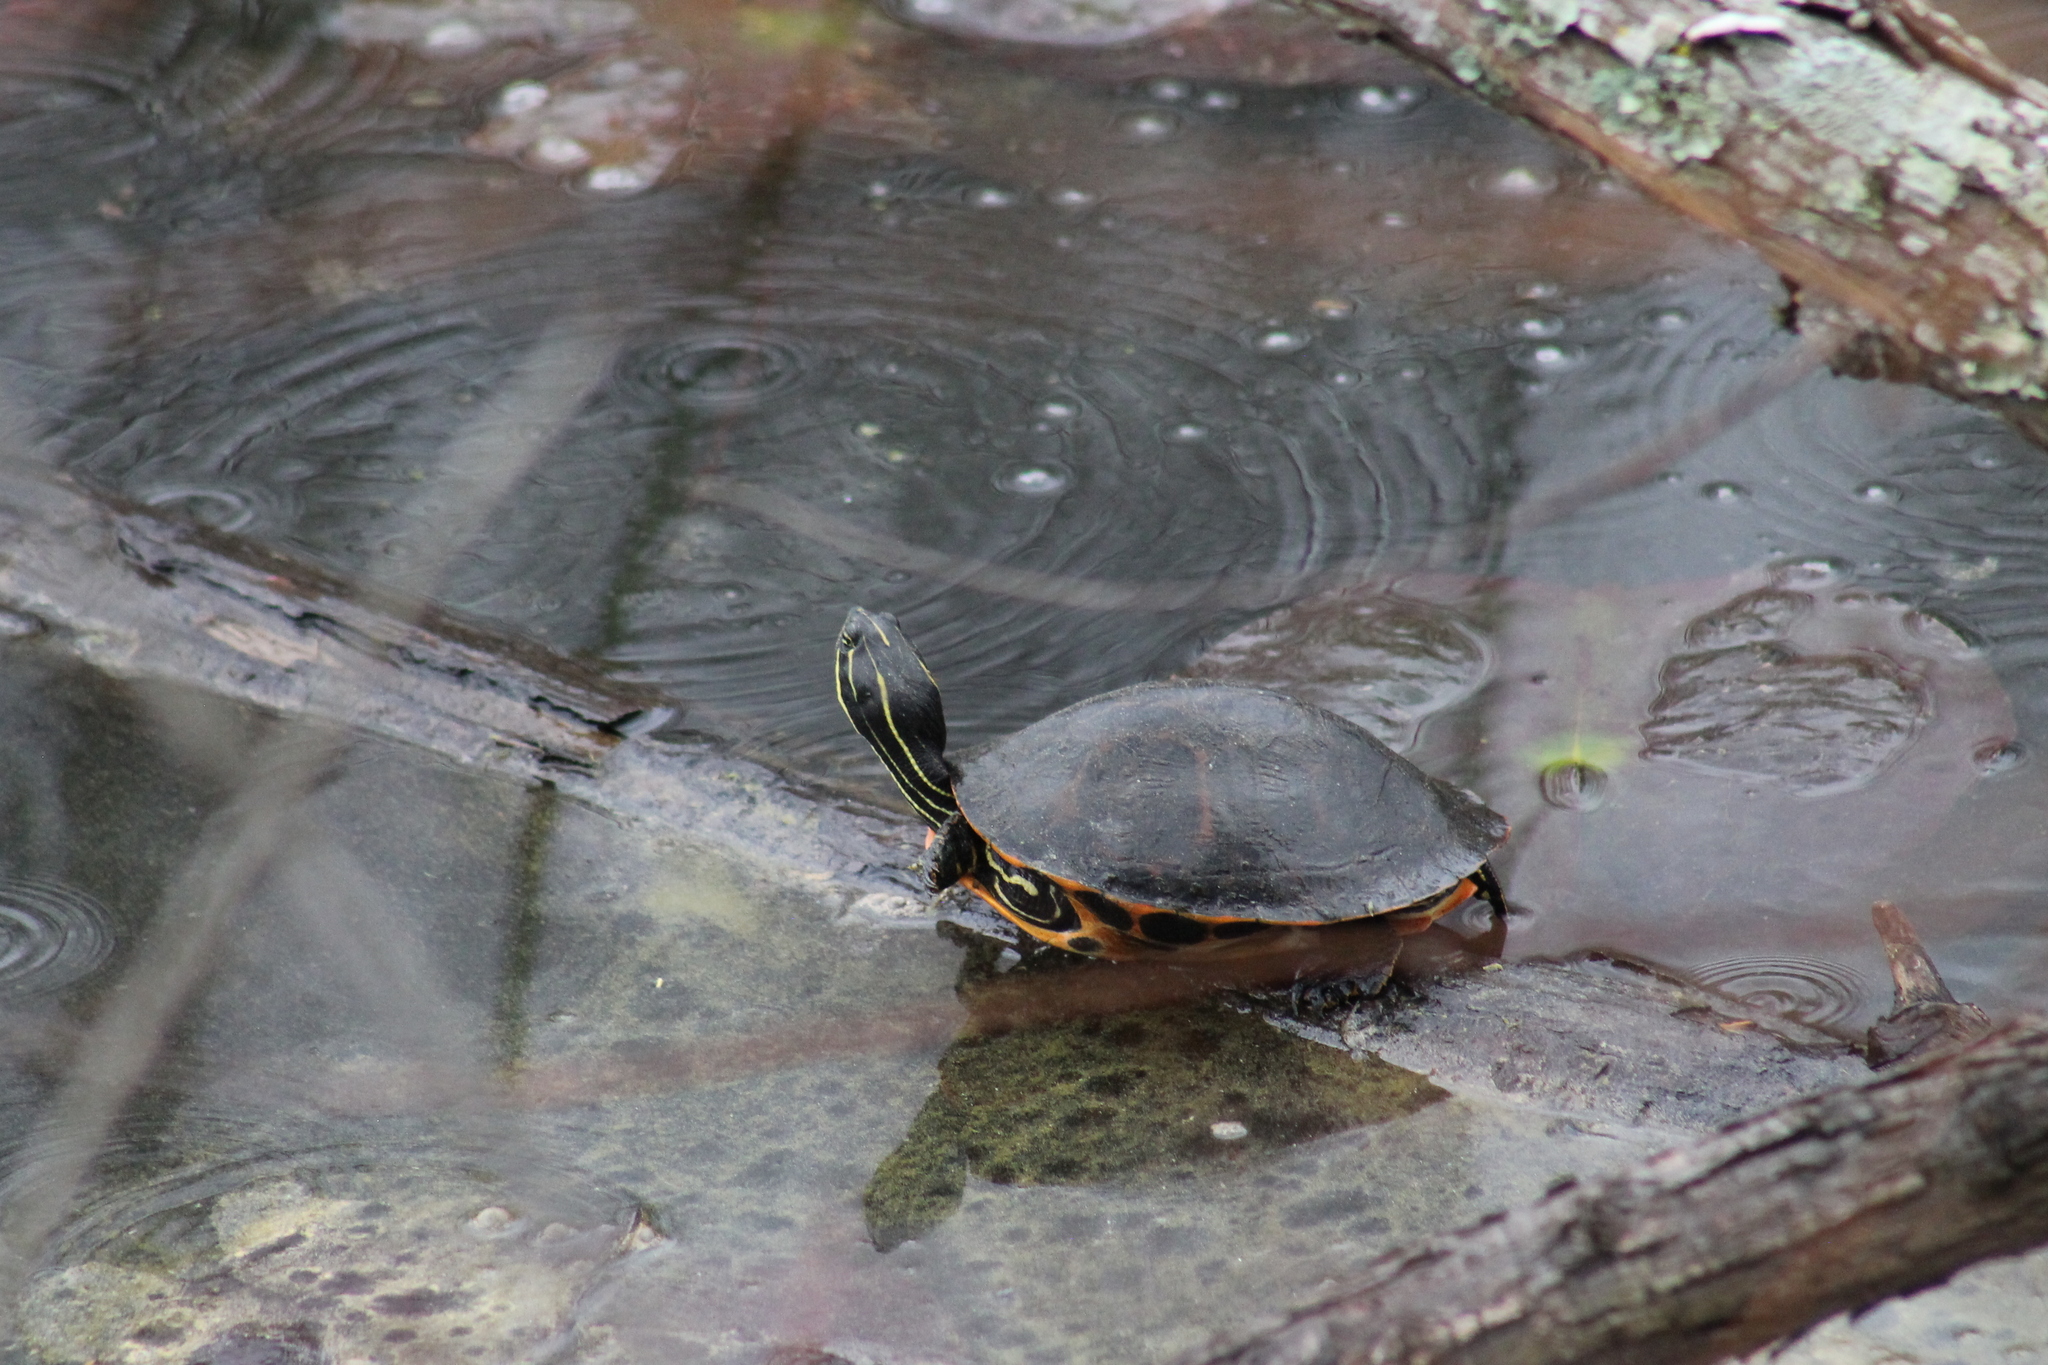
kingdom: Animalia
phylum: Chordata
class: Testudines
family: Emydidae
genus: Pseudemys
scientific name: Pseudemys concinna
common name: Eastern river cooter
